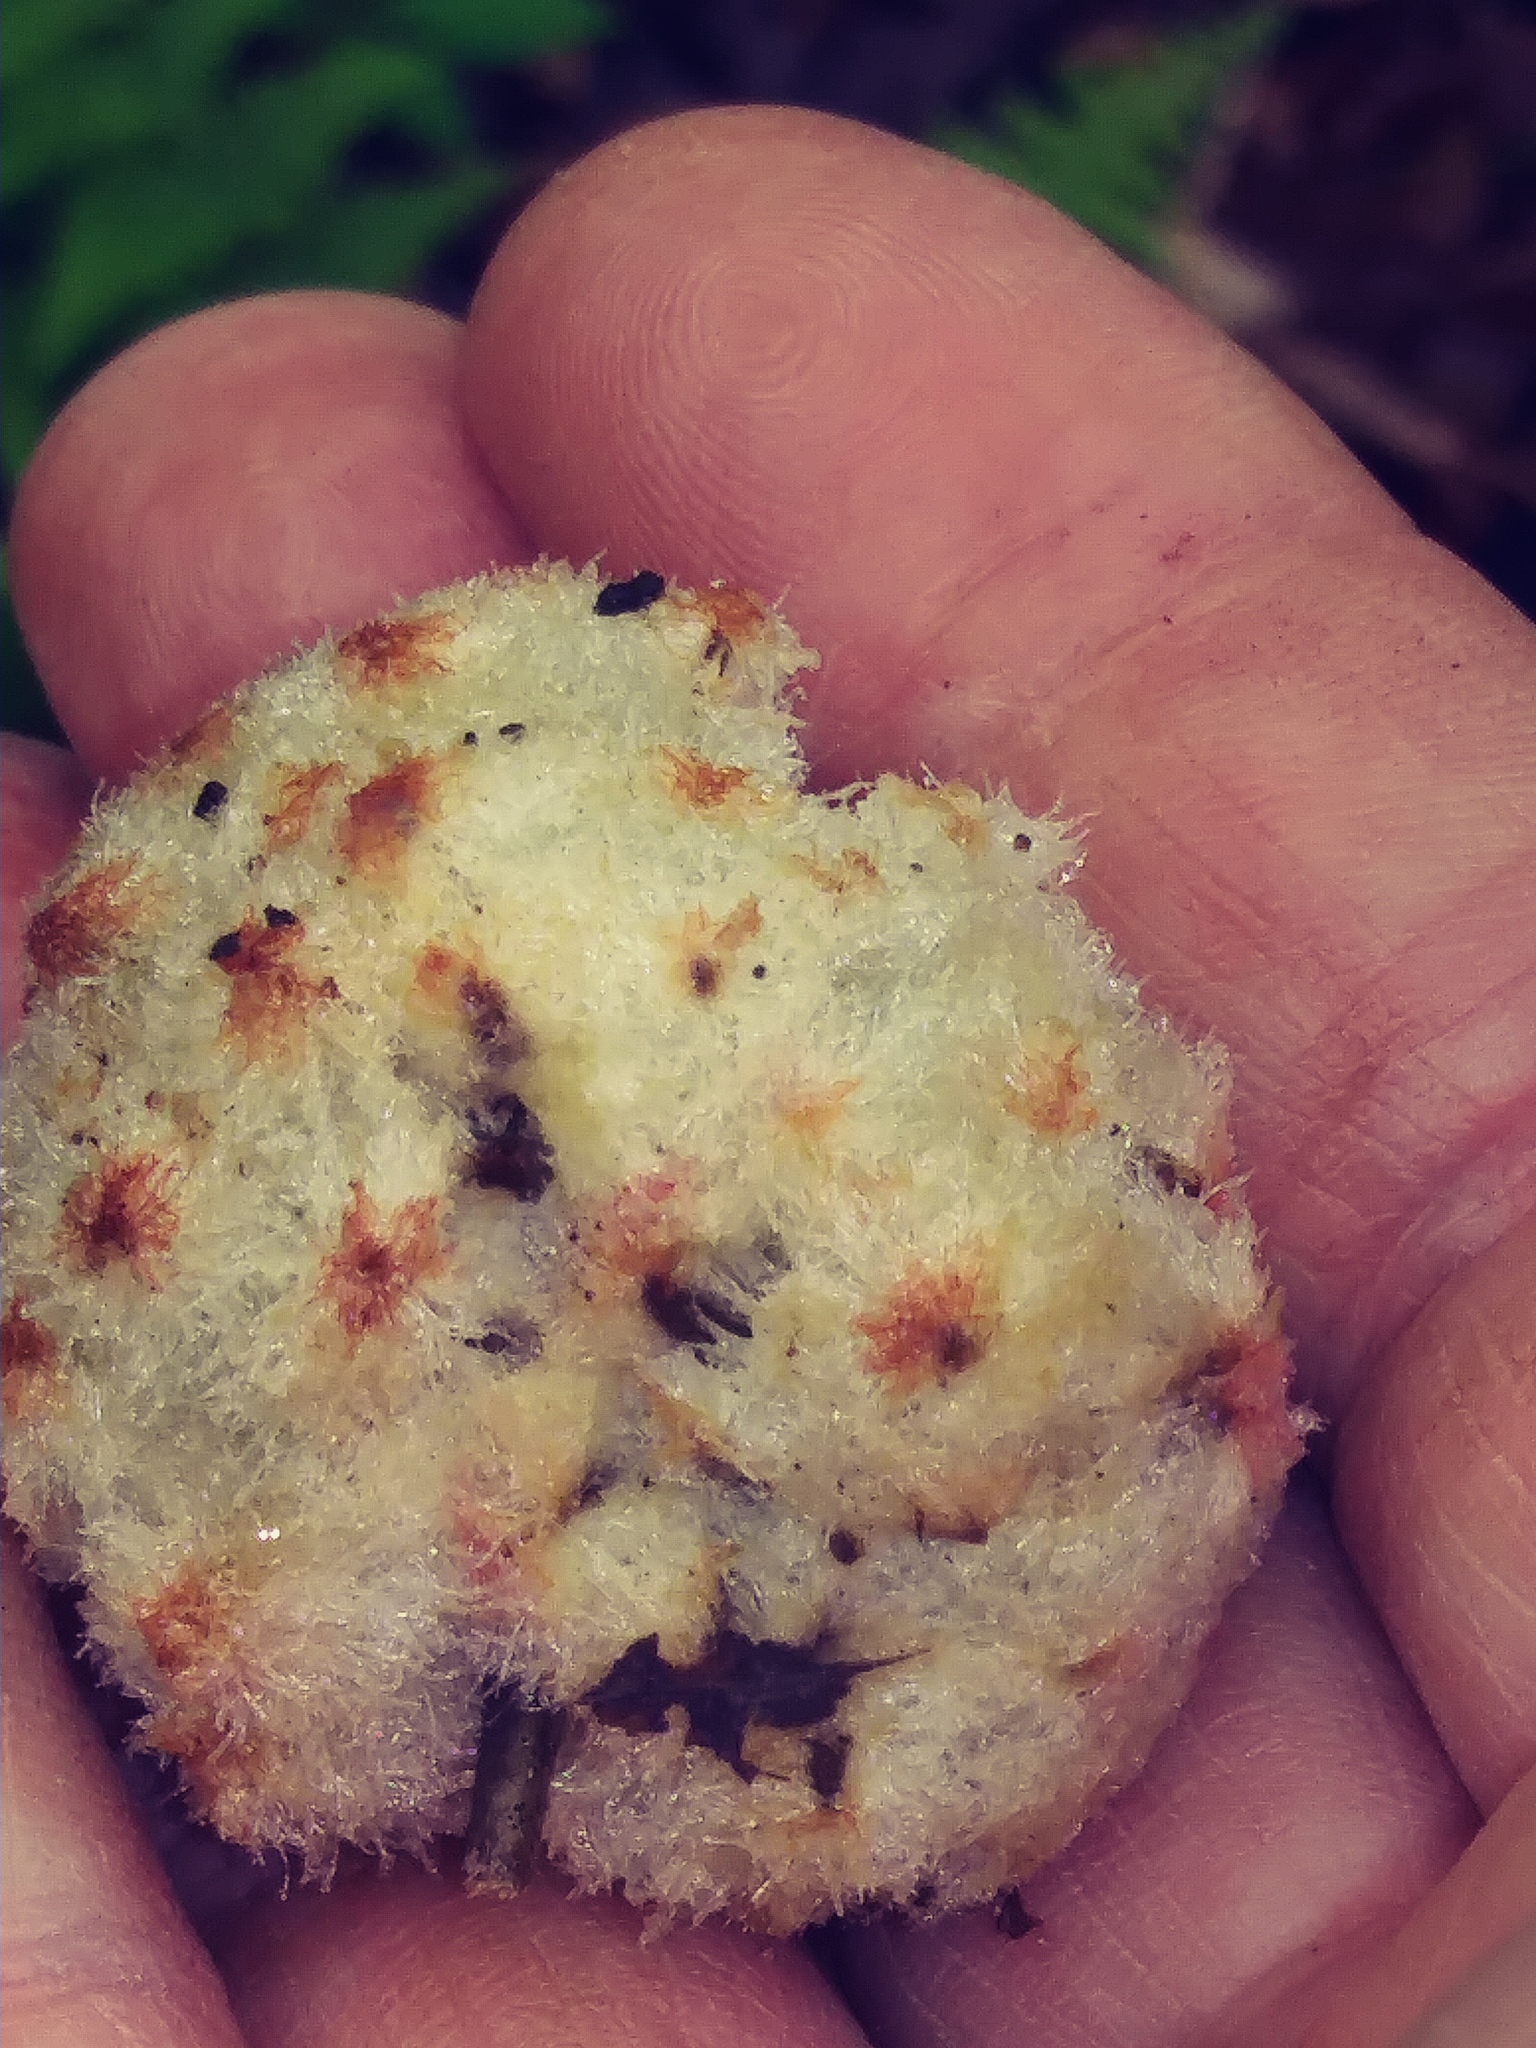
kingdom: Animalia
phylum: Arthropoda
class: Insecta
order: Hymenoptera
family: Cynipidae
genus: Callirhytis
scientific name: Callirhytis
